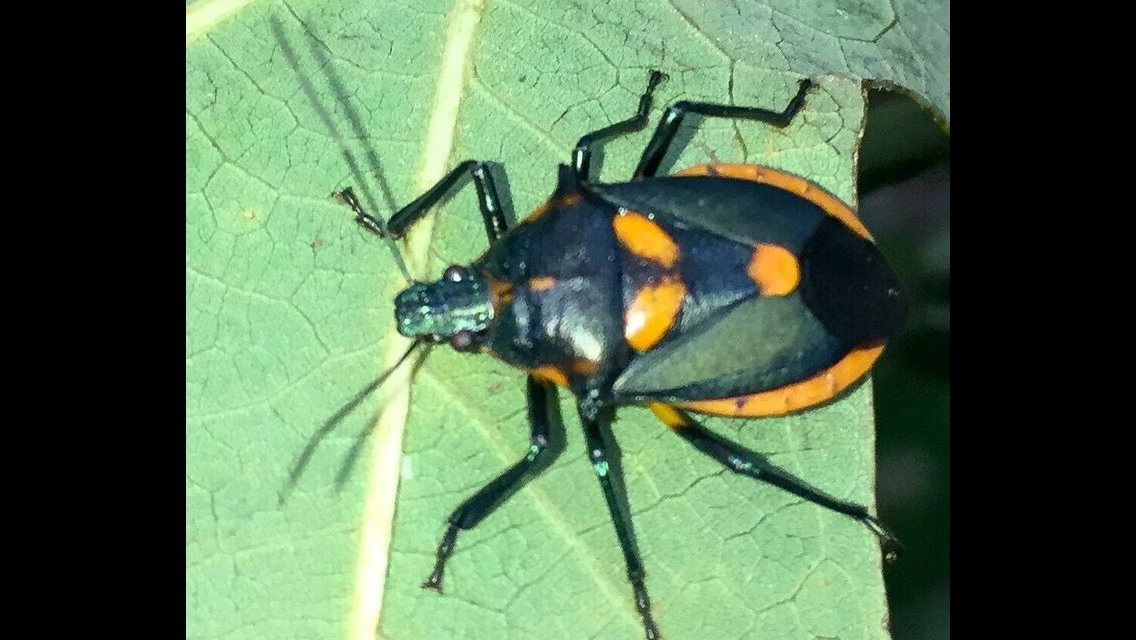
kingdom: Animalia
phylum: Arthropoda
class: Insecta
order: Hemiptera
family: Pentatomidae
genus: Euthyrhynchus
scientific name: Euthyrhynchus floridanus
